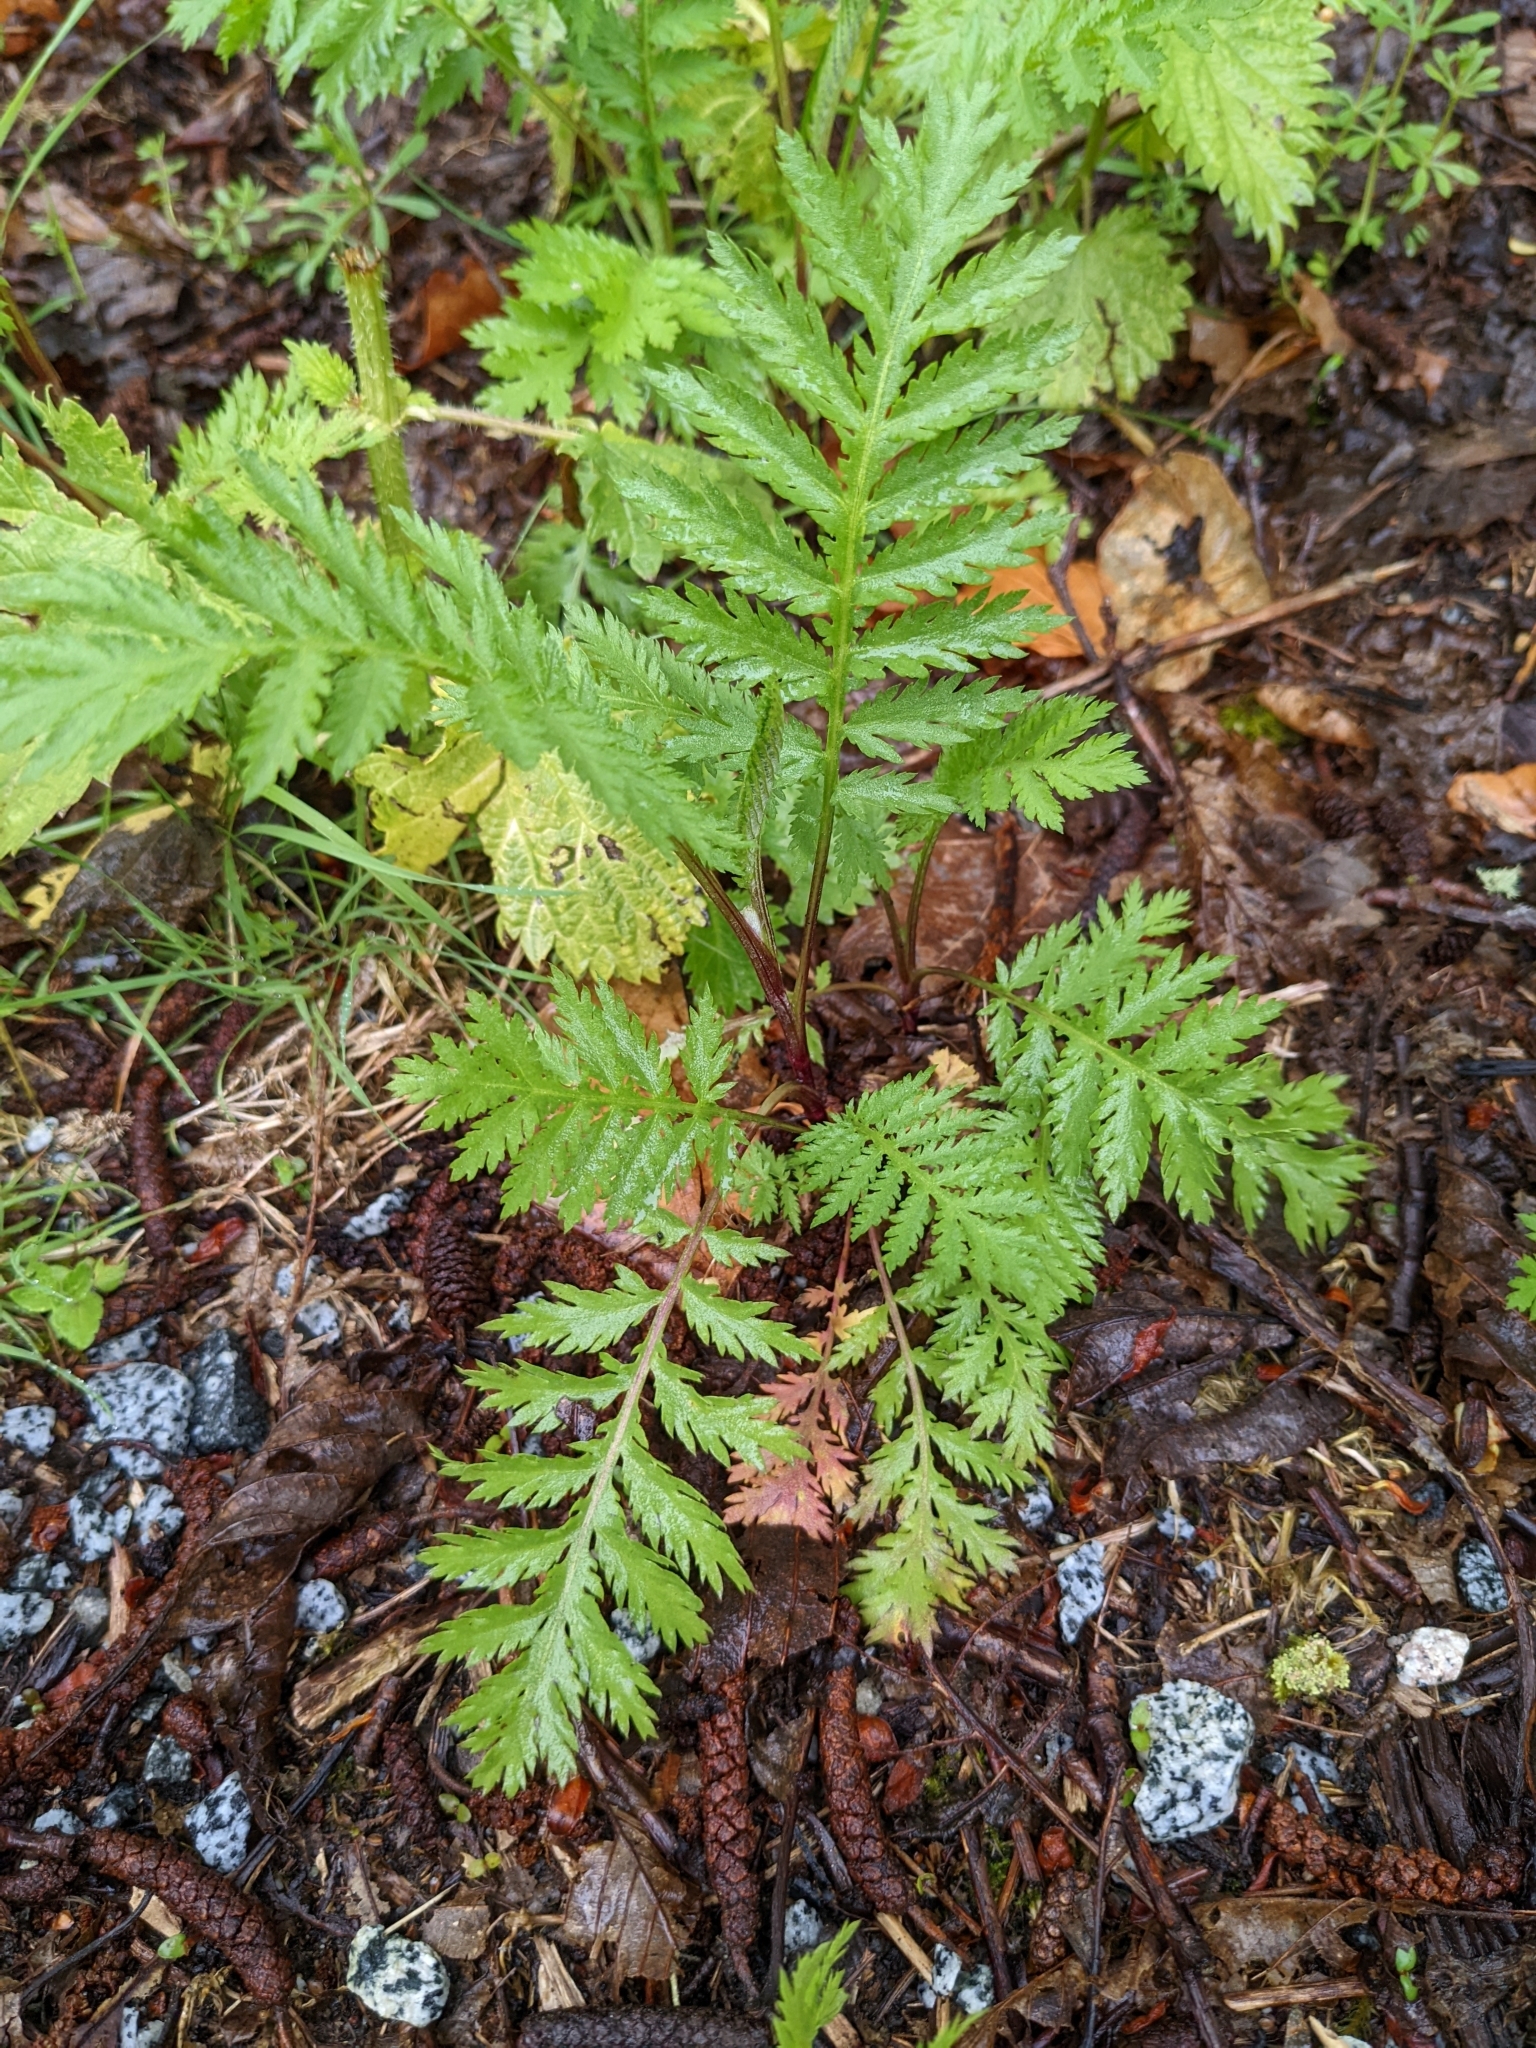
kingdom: Plantae
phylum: Tracheophyta
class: Magnoliopsida
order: Asterales
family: Asteraceae
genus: Tanacetum
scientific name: Tanacetum vulgare
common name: Common tansy
